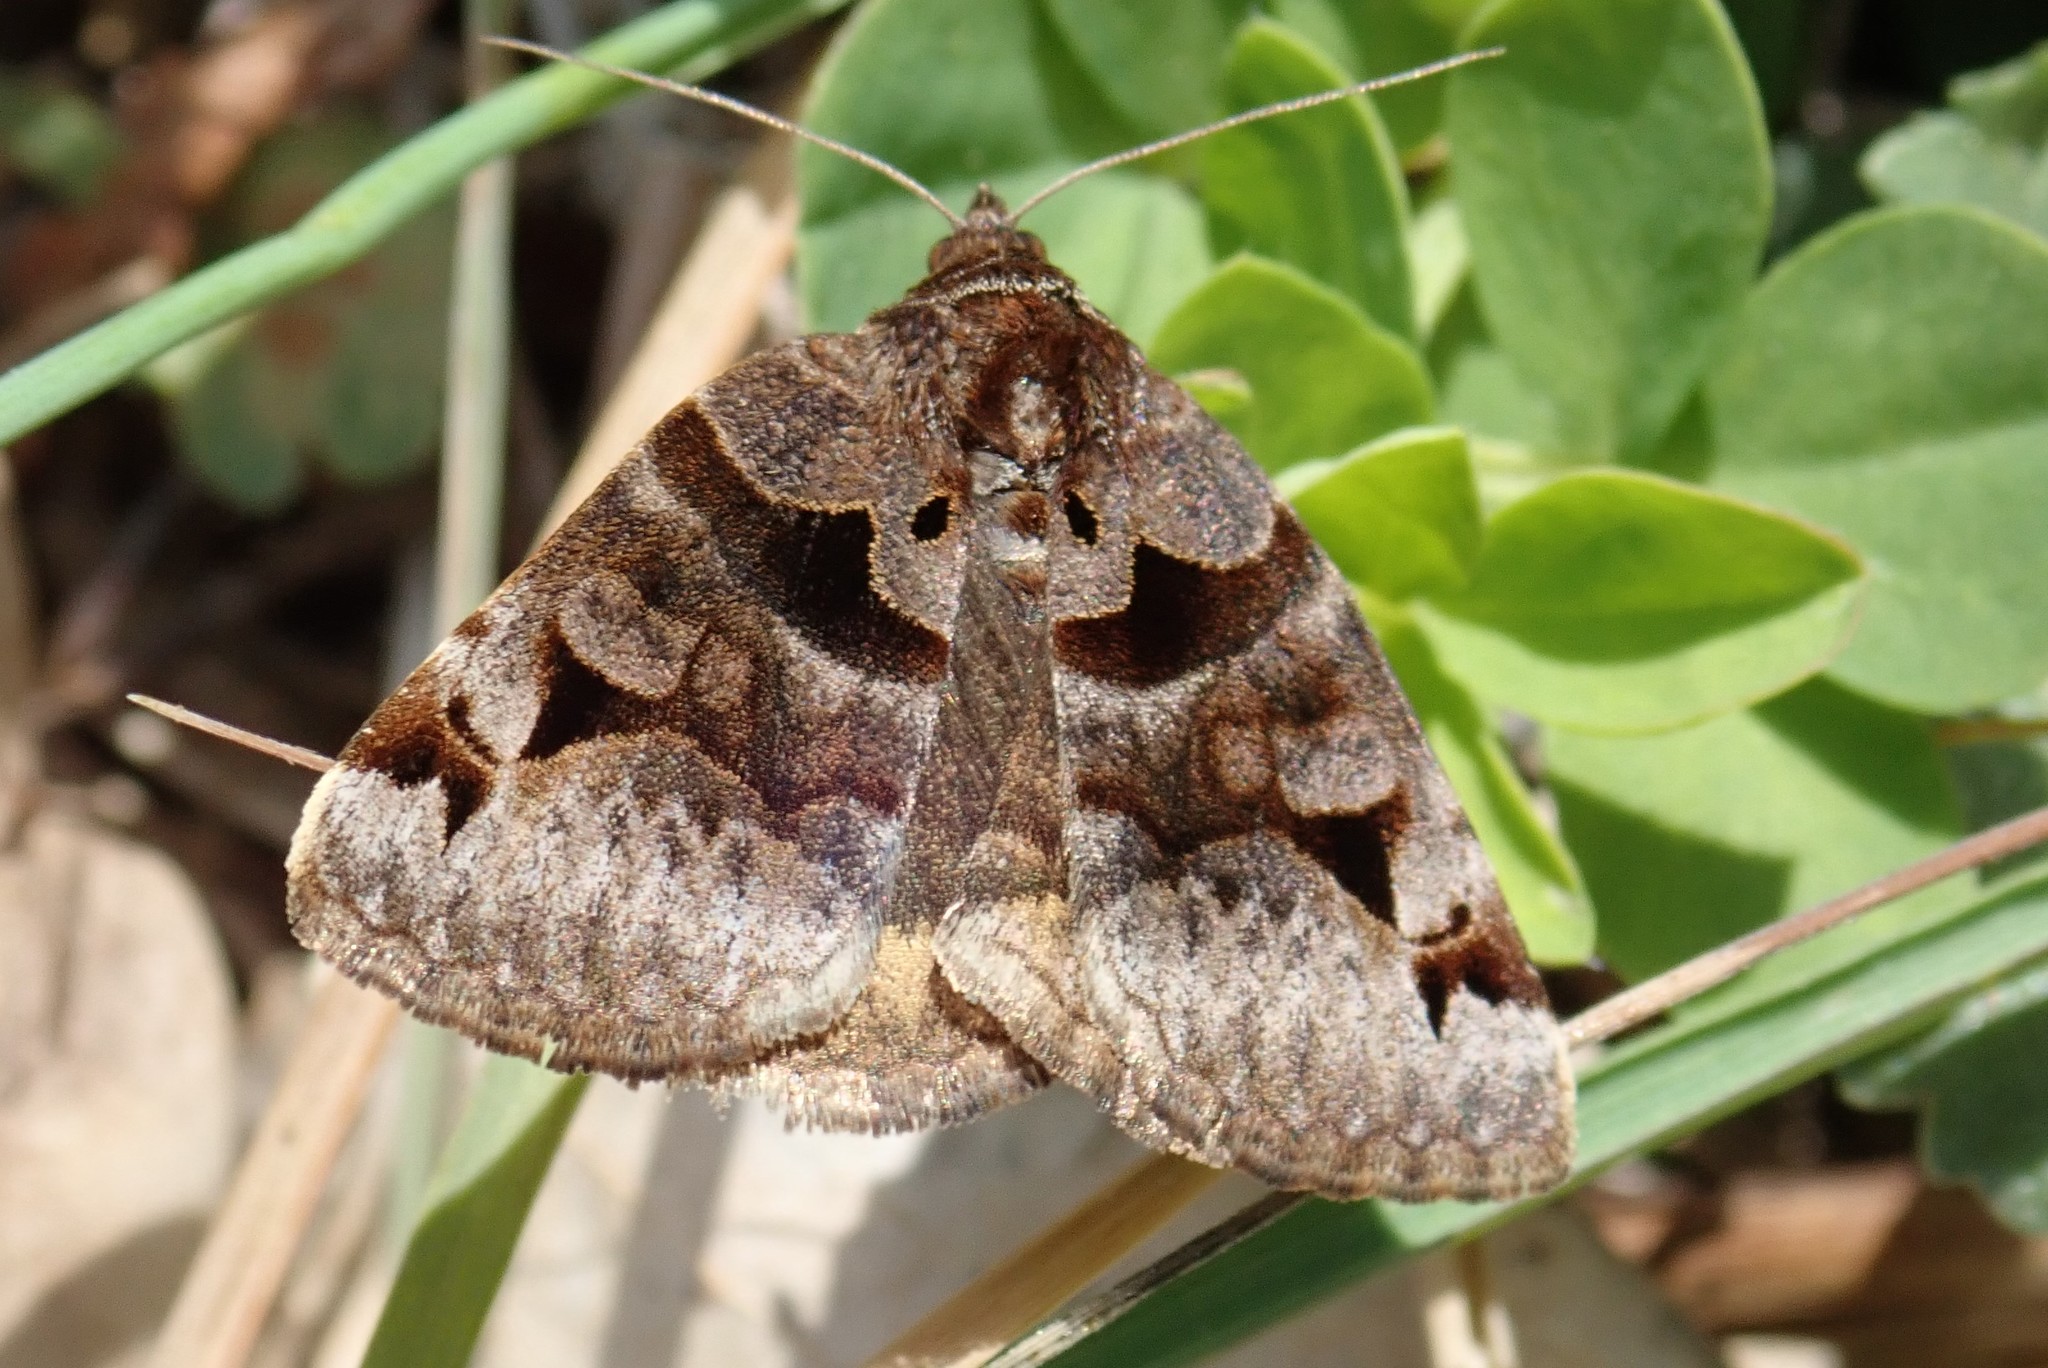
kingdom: Animalia
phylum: Arthropoda
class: Insecta
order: Lepidoptera
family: Erebidae
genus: Euclidia
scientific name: Euclidia cuspidea
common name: Toothed somberwing
